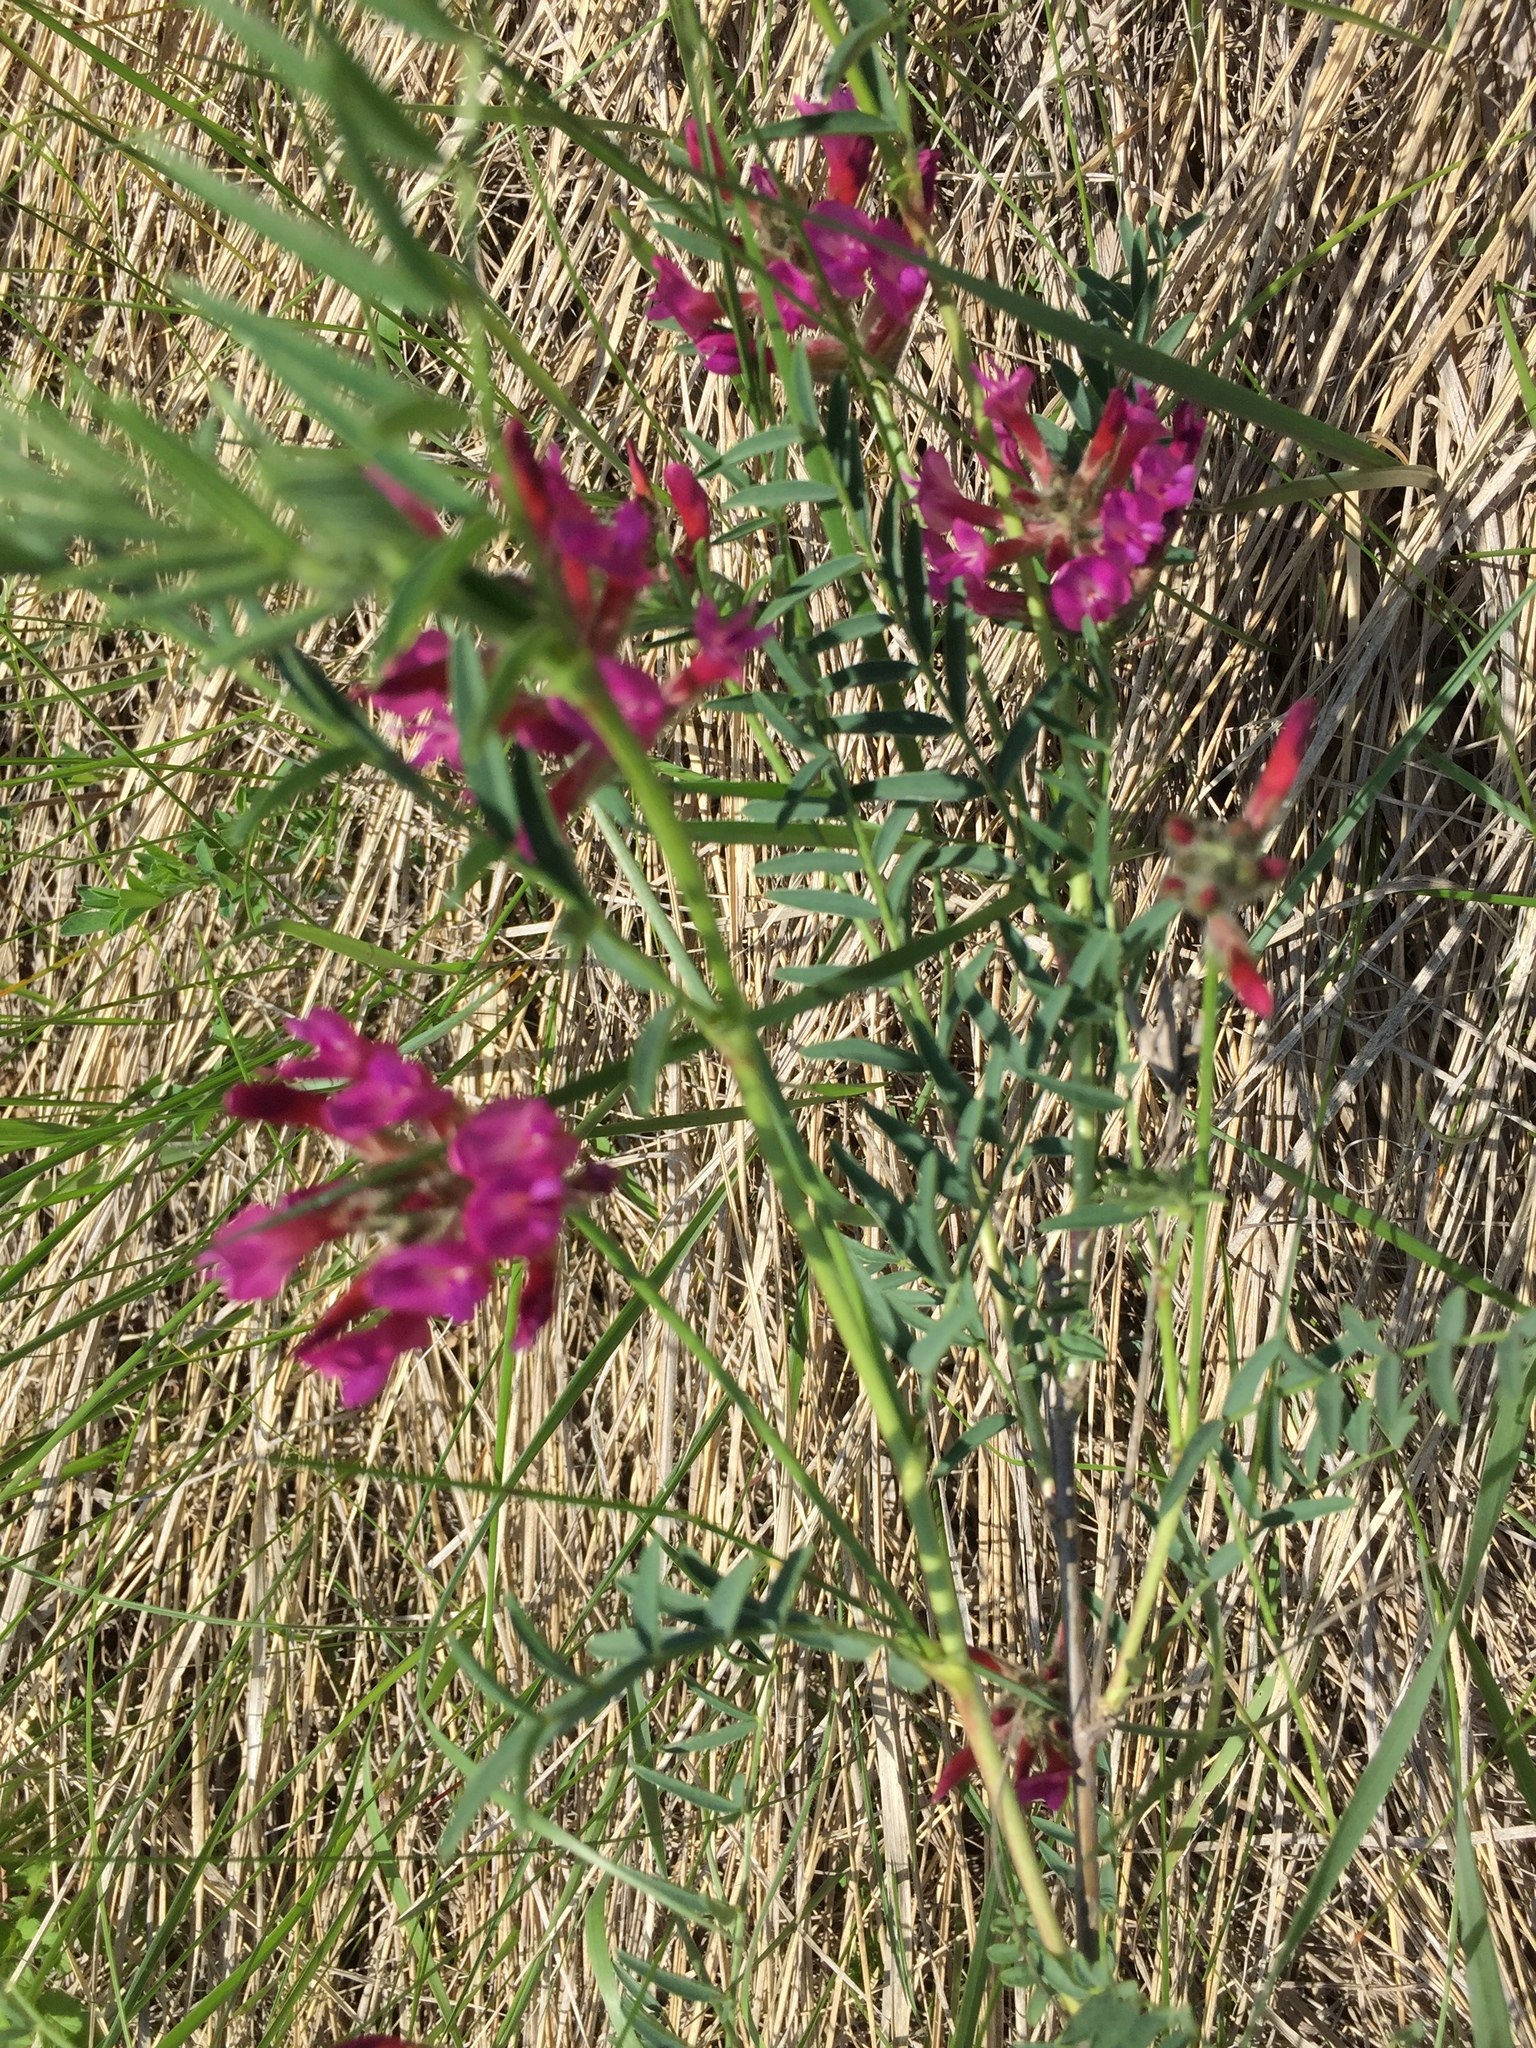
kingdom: Plantae
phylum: Tracheophyta
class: Magnoliopsida
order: Fabales
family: Fabaceae
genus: Astragalus
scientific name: Astragalus cornutus
